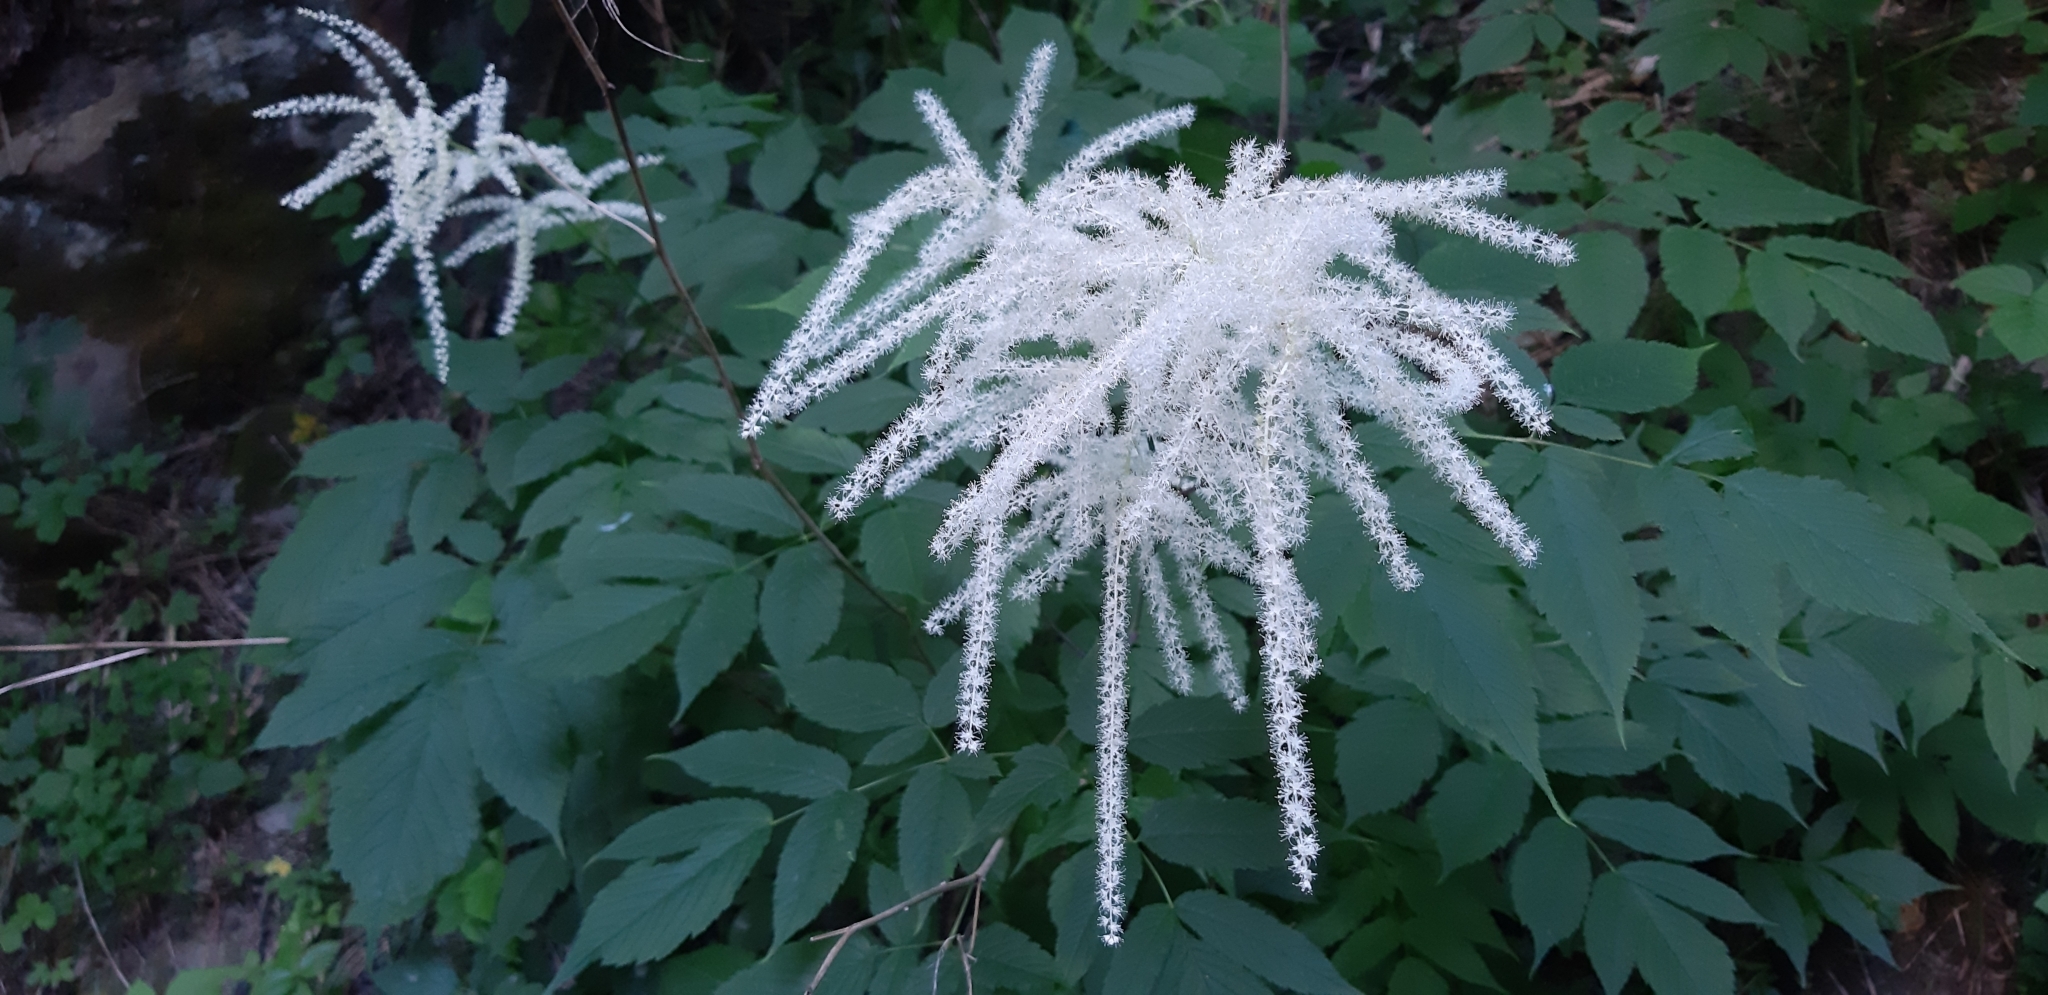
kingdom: Plantae
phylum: Tracheophyta
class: Magnoliopsida
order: Rosales
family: Rosaceae
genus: Aruncus
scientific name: Aruncus dioicus
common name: Buck's-beard
